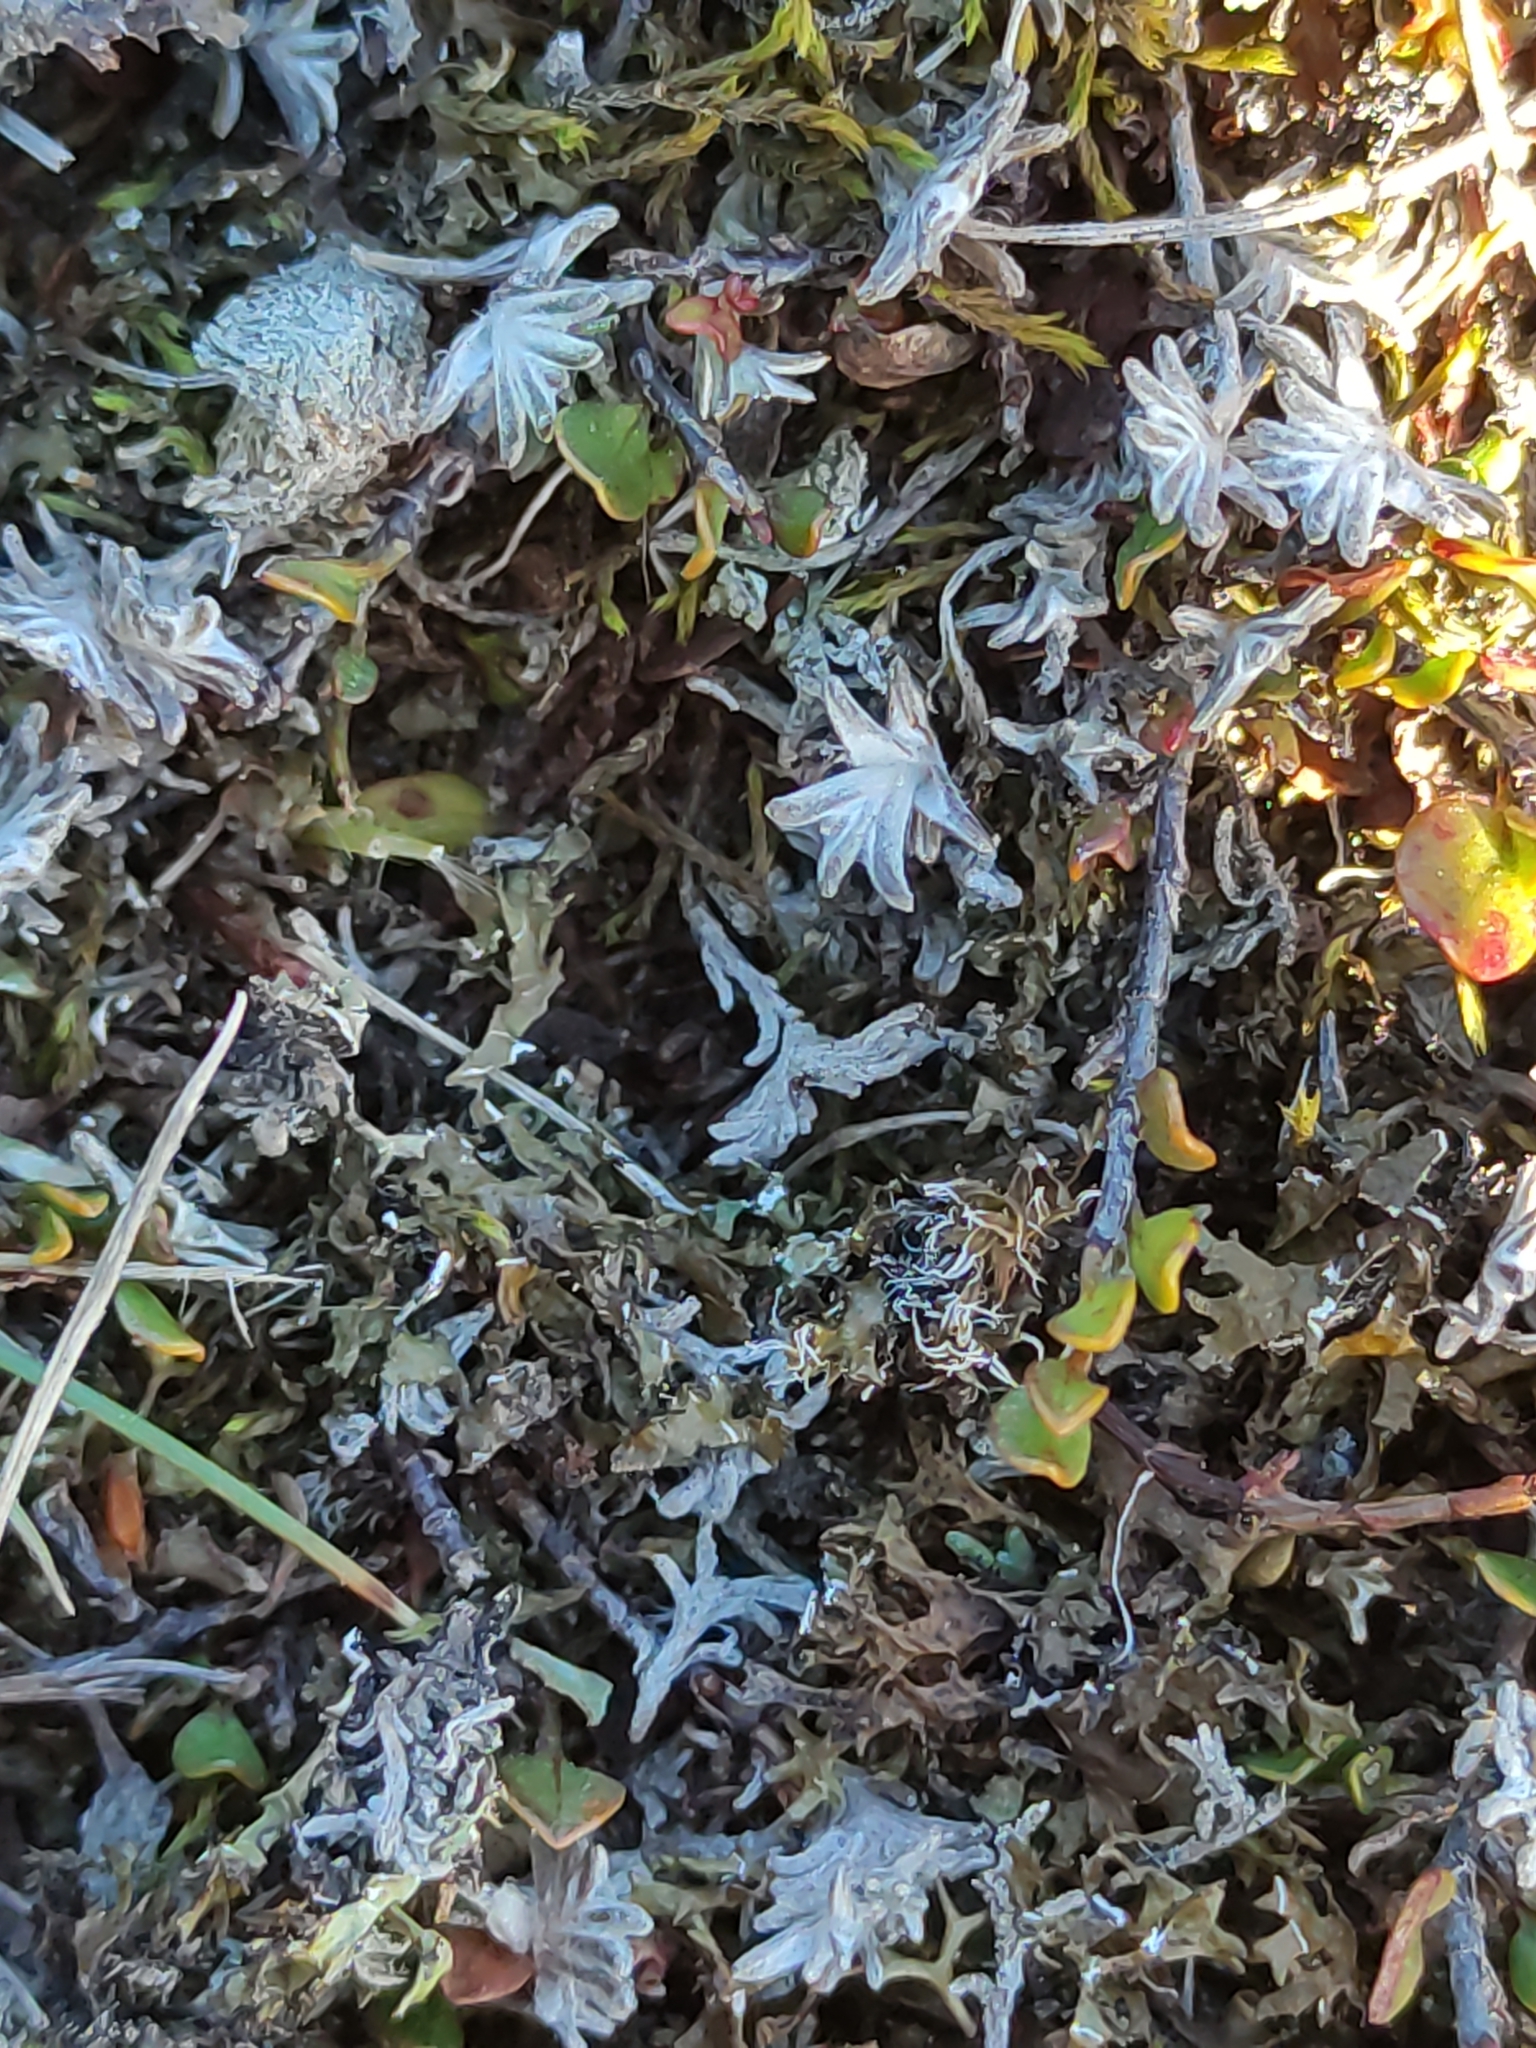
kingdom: Plantae
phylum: Tracheophyta
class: Magnoliopsida
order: Asterales
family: Asteraceae
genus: Raoulia
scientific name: Raoulia monroi
